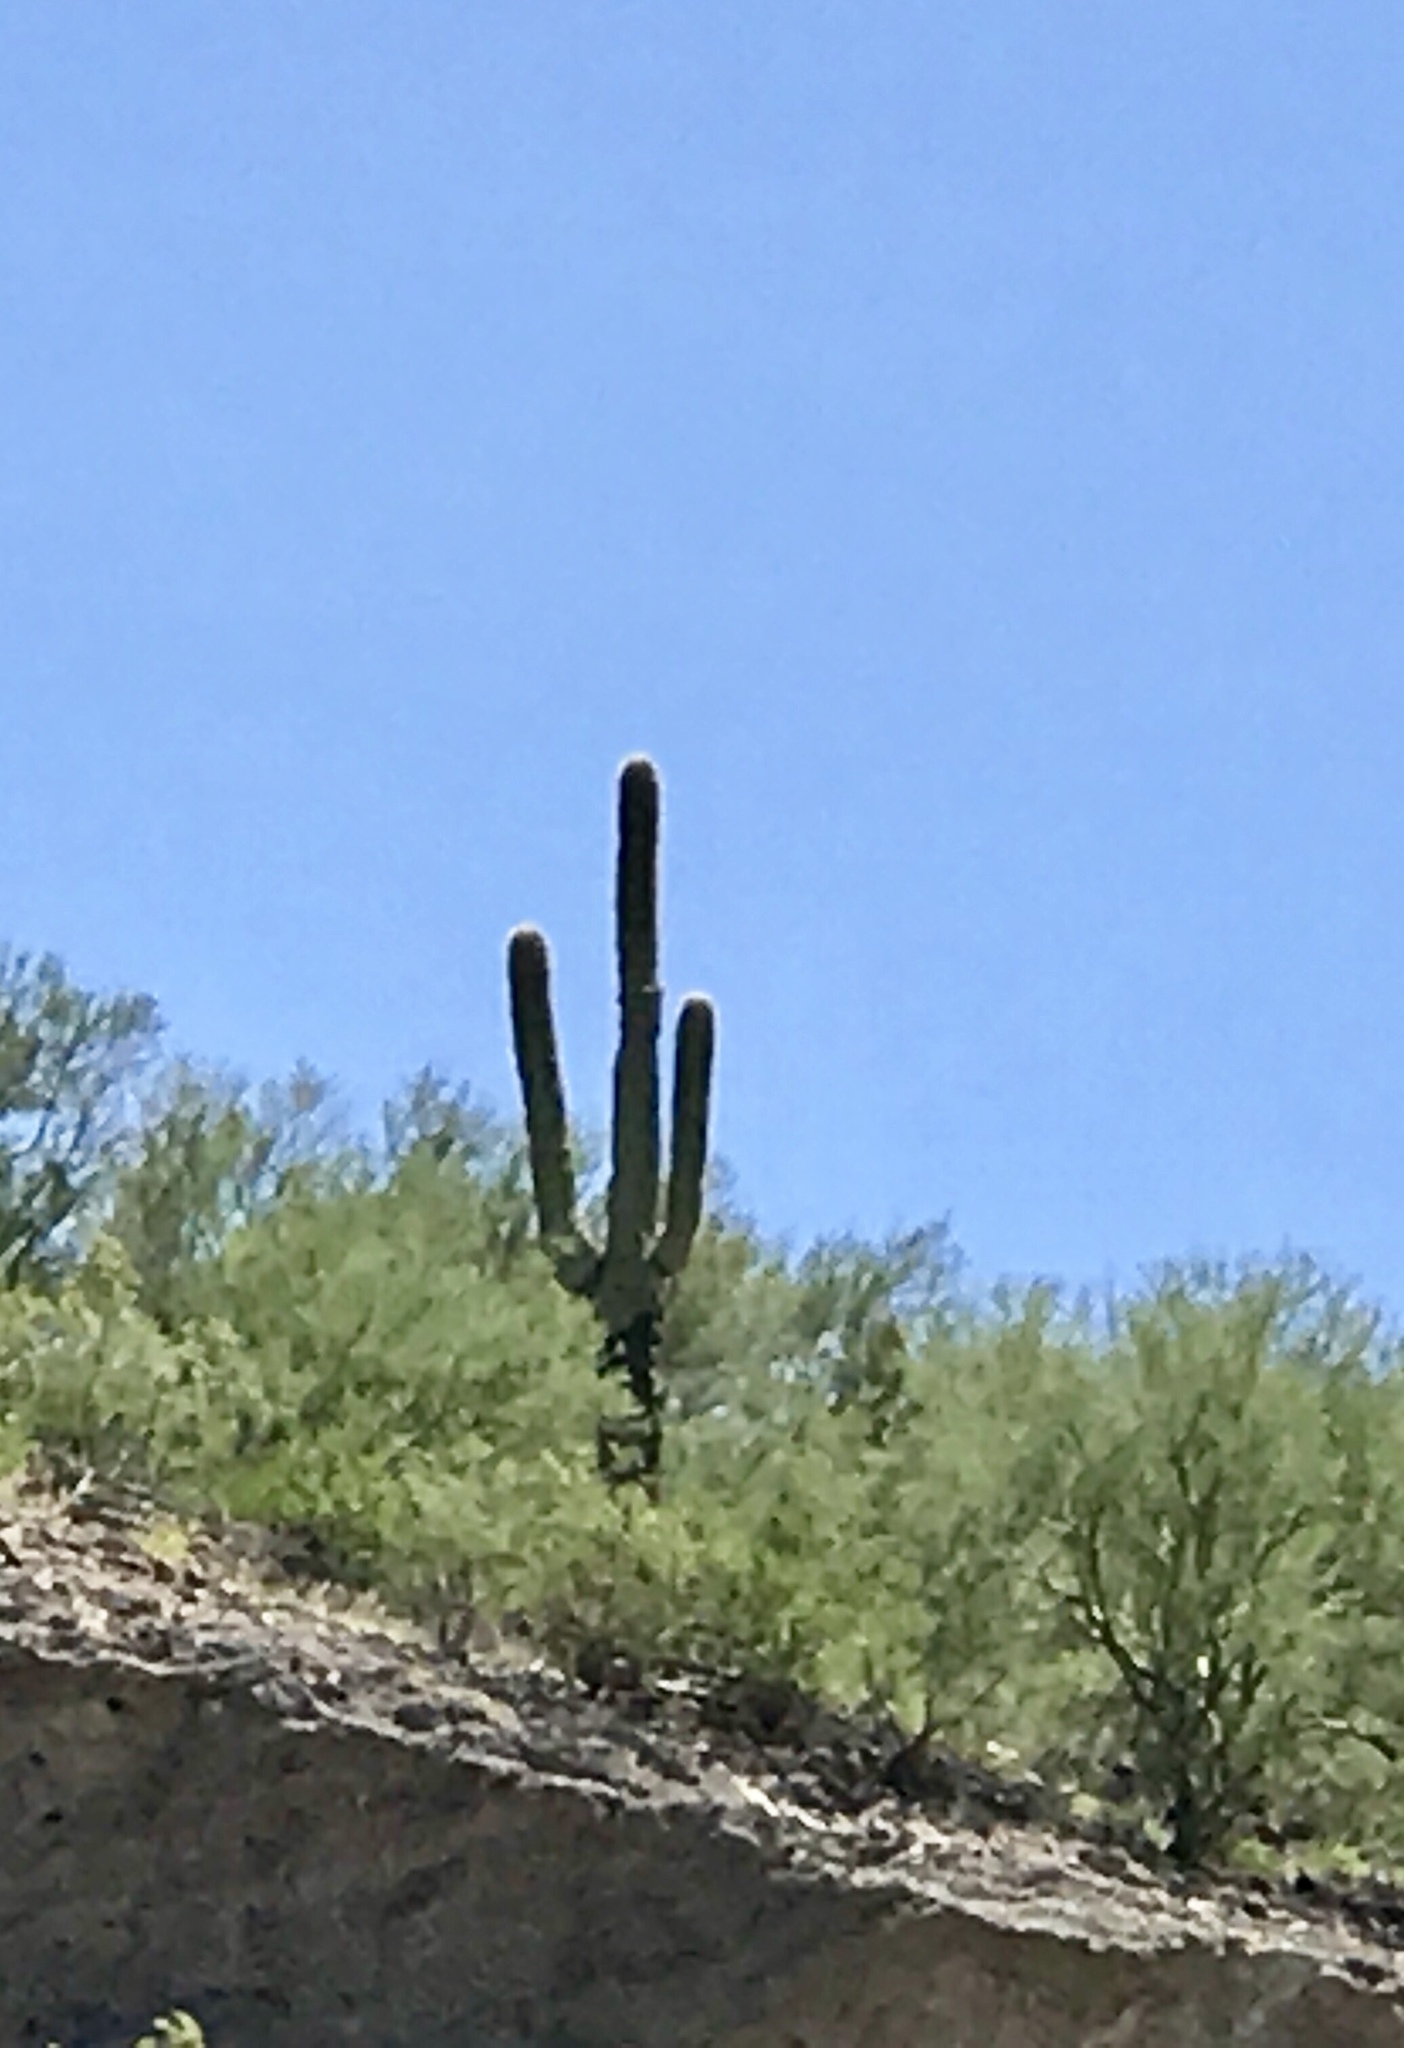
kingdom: Plantae
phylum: Tracheophyta
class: Magnoliopsida
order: Caryophyllales
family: Cactaceae
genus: Carnegiea
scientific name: Carnegiea gigantea
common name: Saguaro
